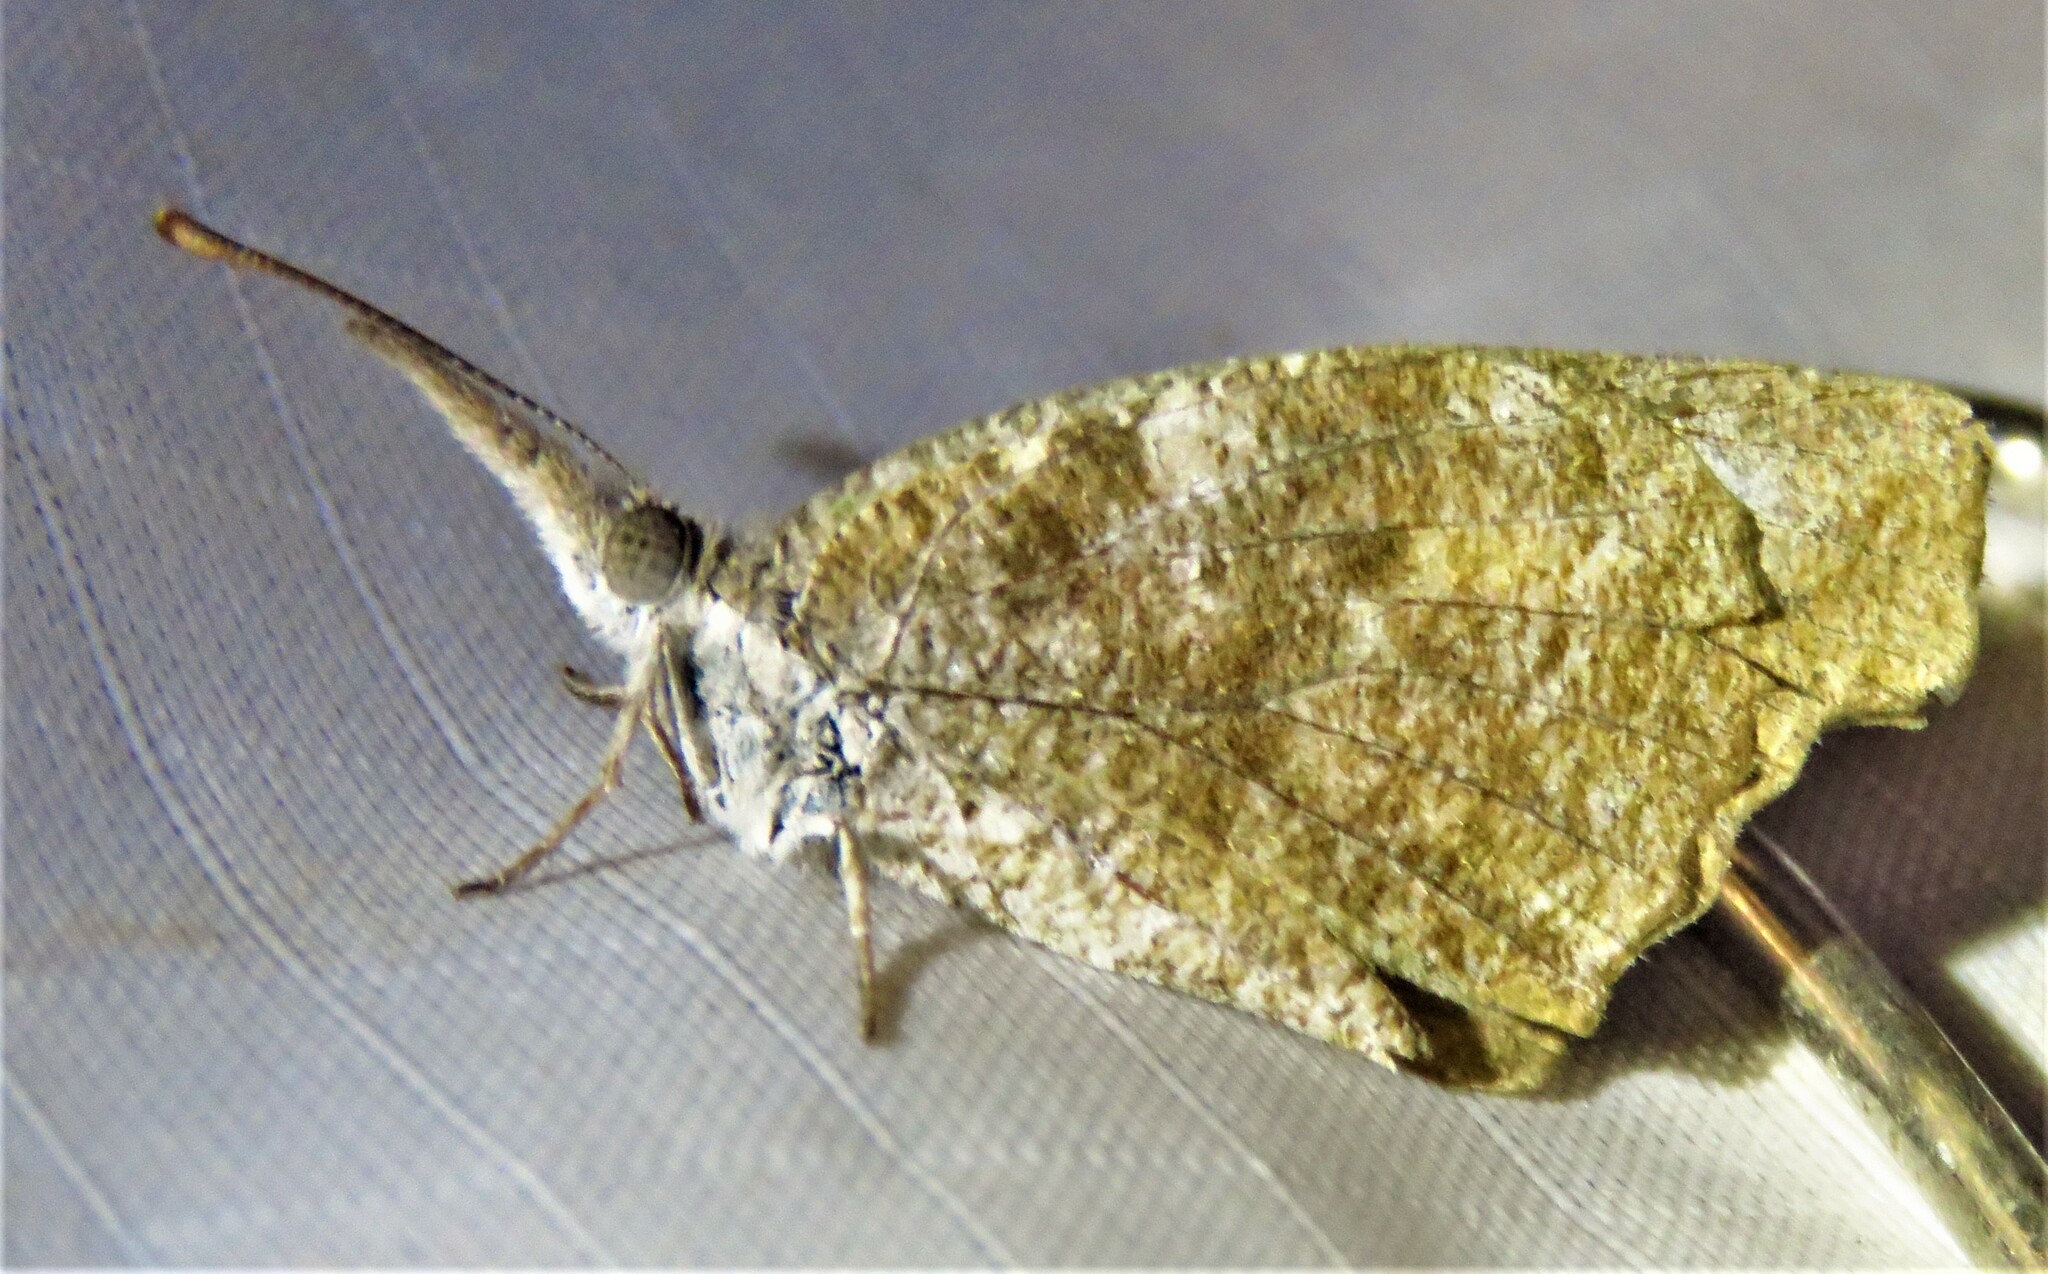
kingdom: Animalia
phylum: Arthropoda
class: Insecta
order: Lepidoptera
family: Nymphalidae
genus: Libytheana
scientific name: Libytheana carinenta
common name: American snout
